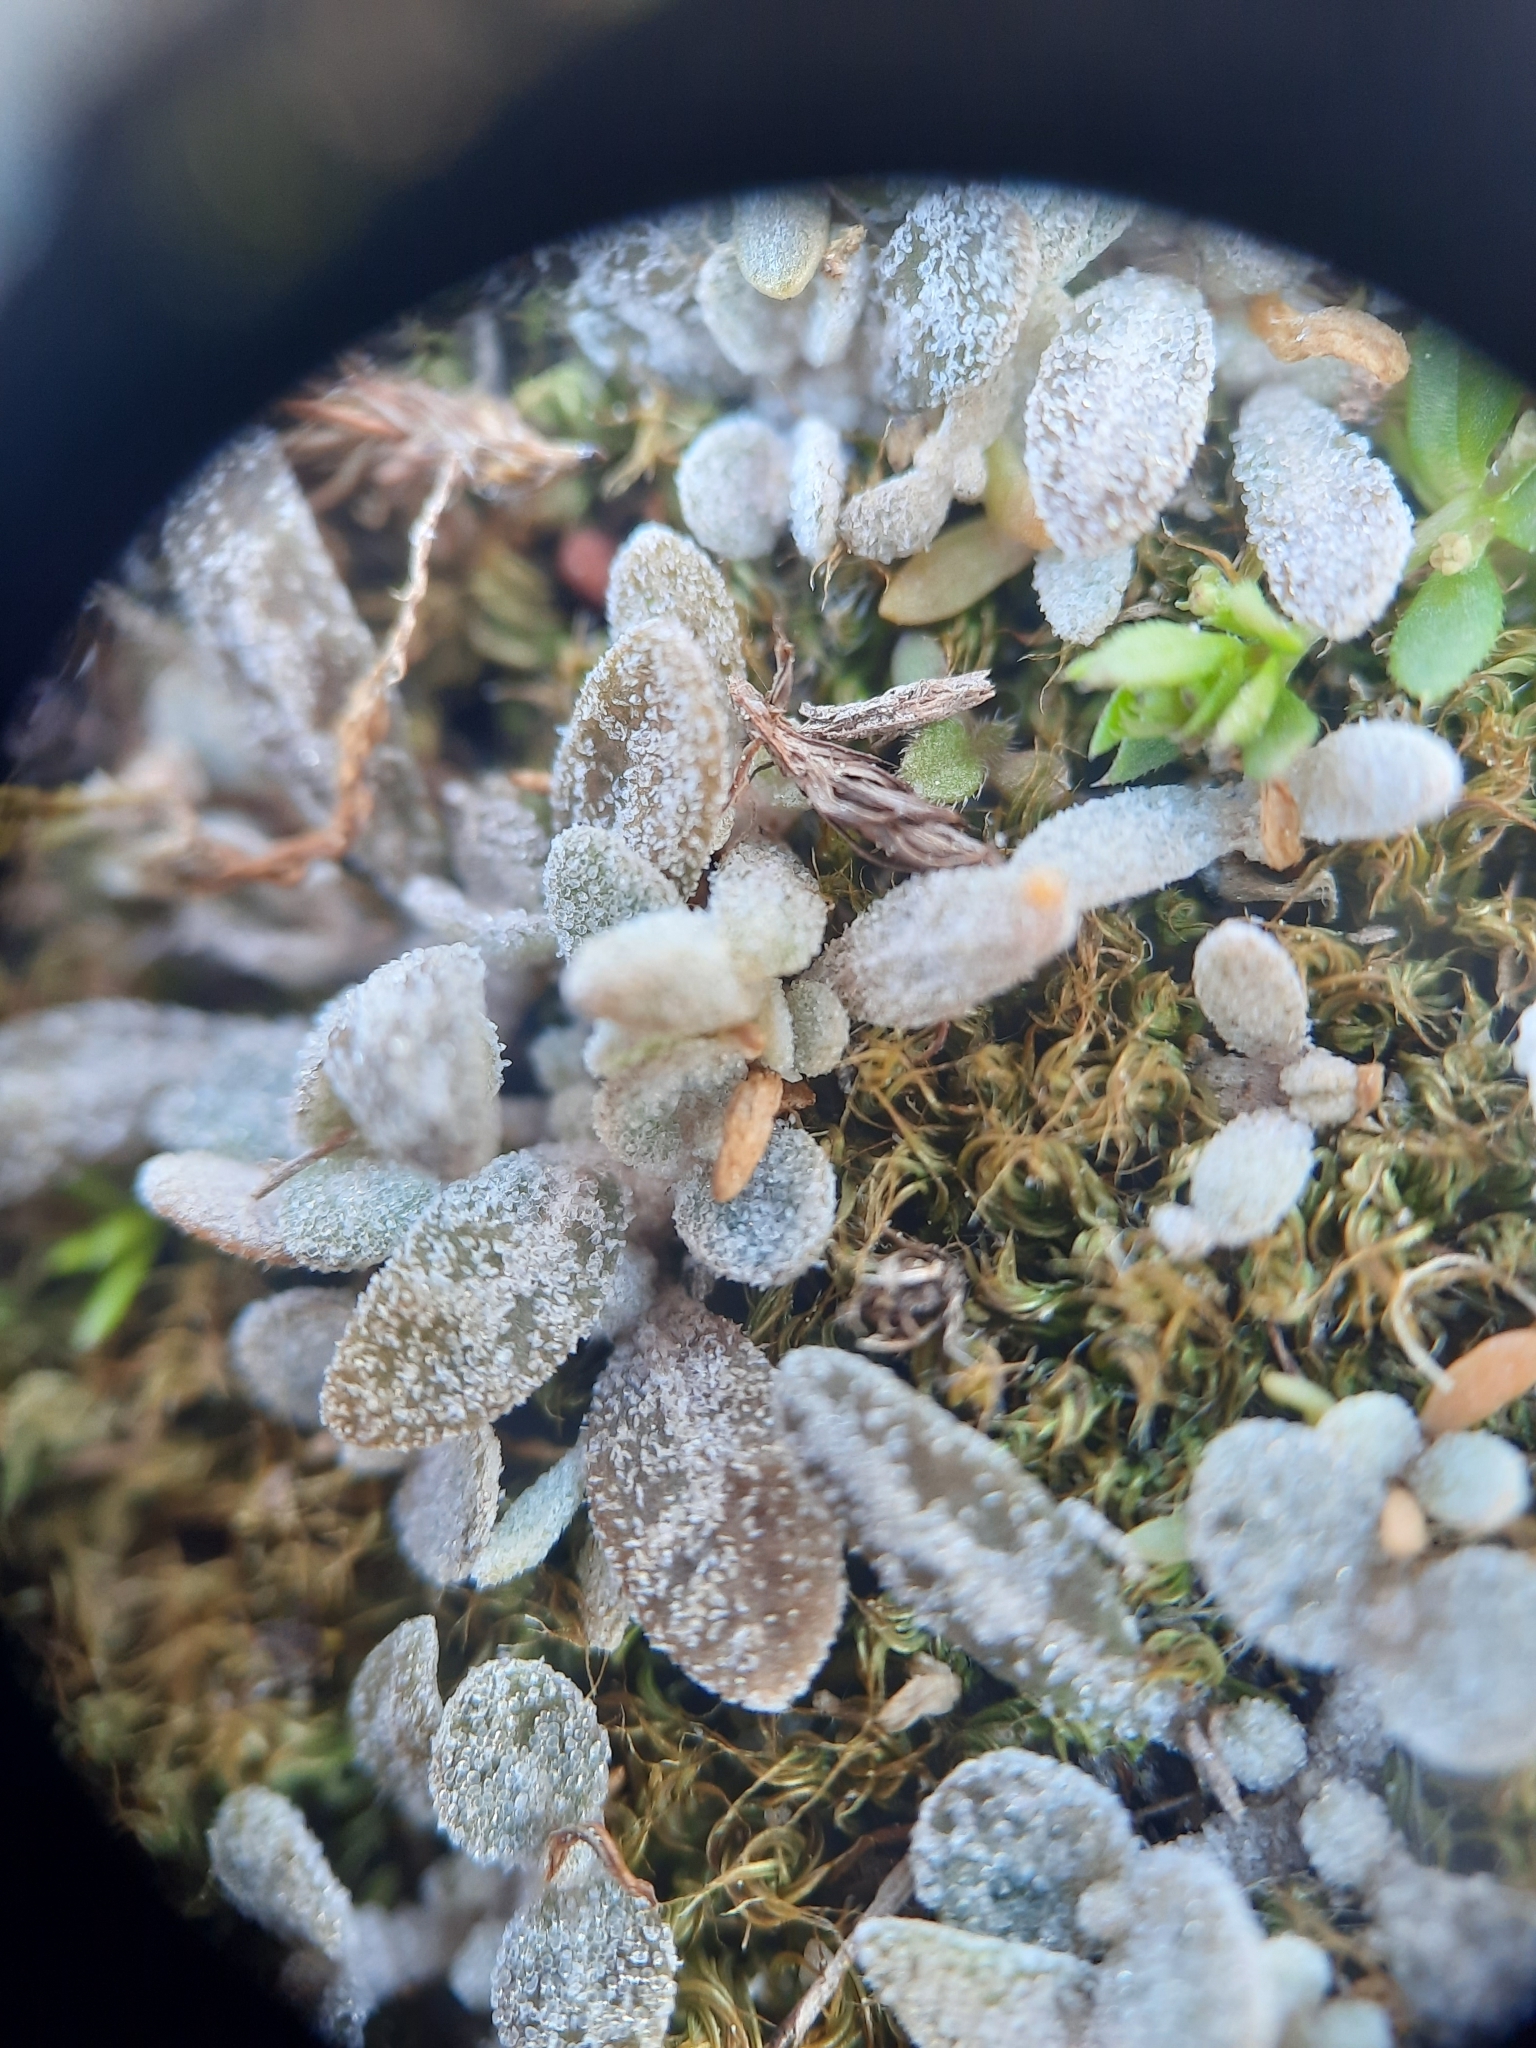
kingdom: Plantae
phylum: Tracheophyta
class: Magnoliopsida
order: Caryophyllales
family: Amaranthaceae
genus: Atriplex
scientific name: Atriplex buchananii
